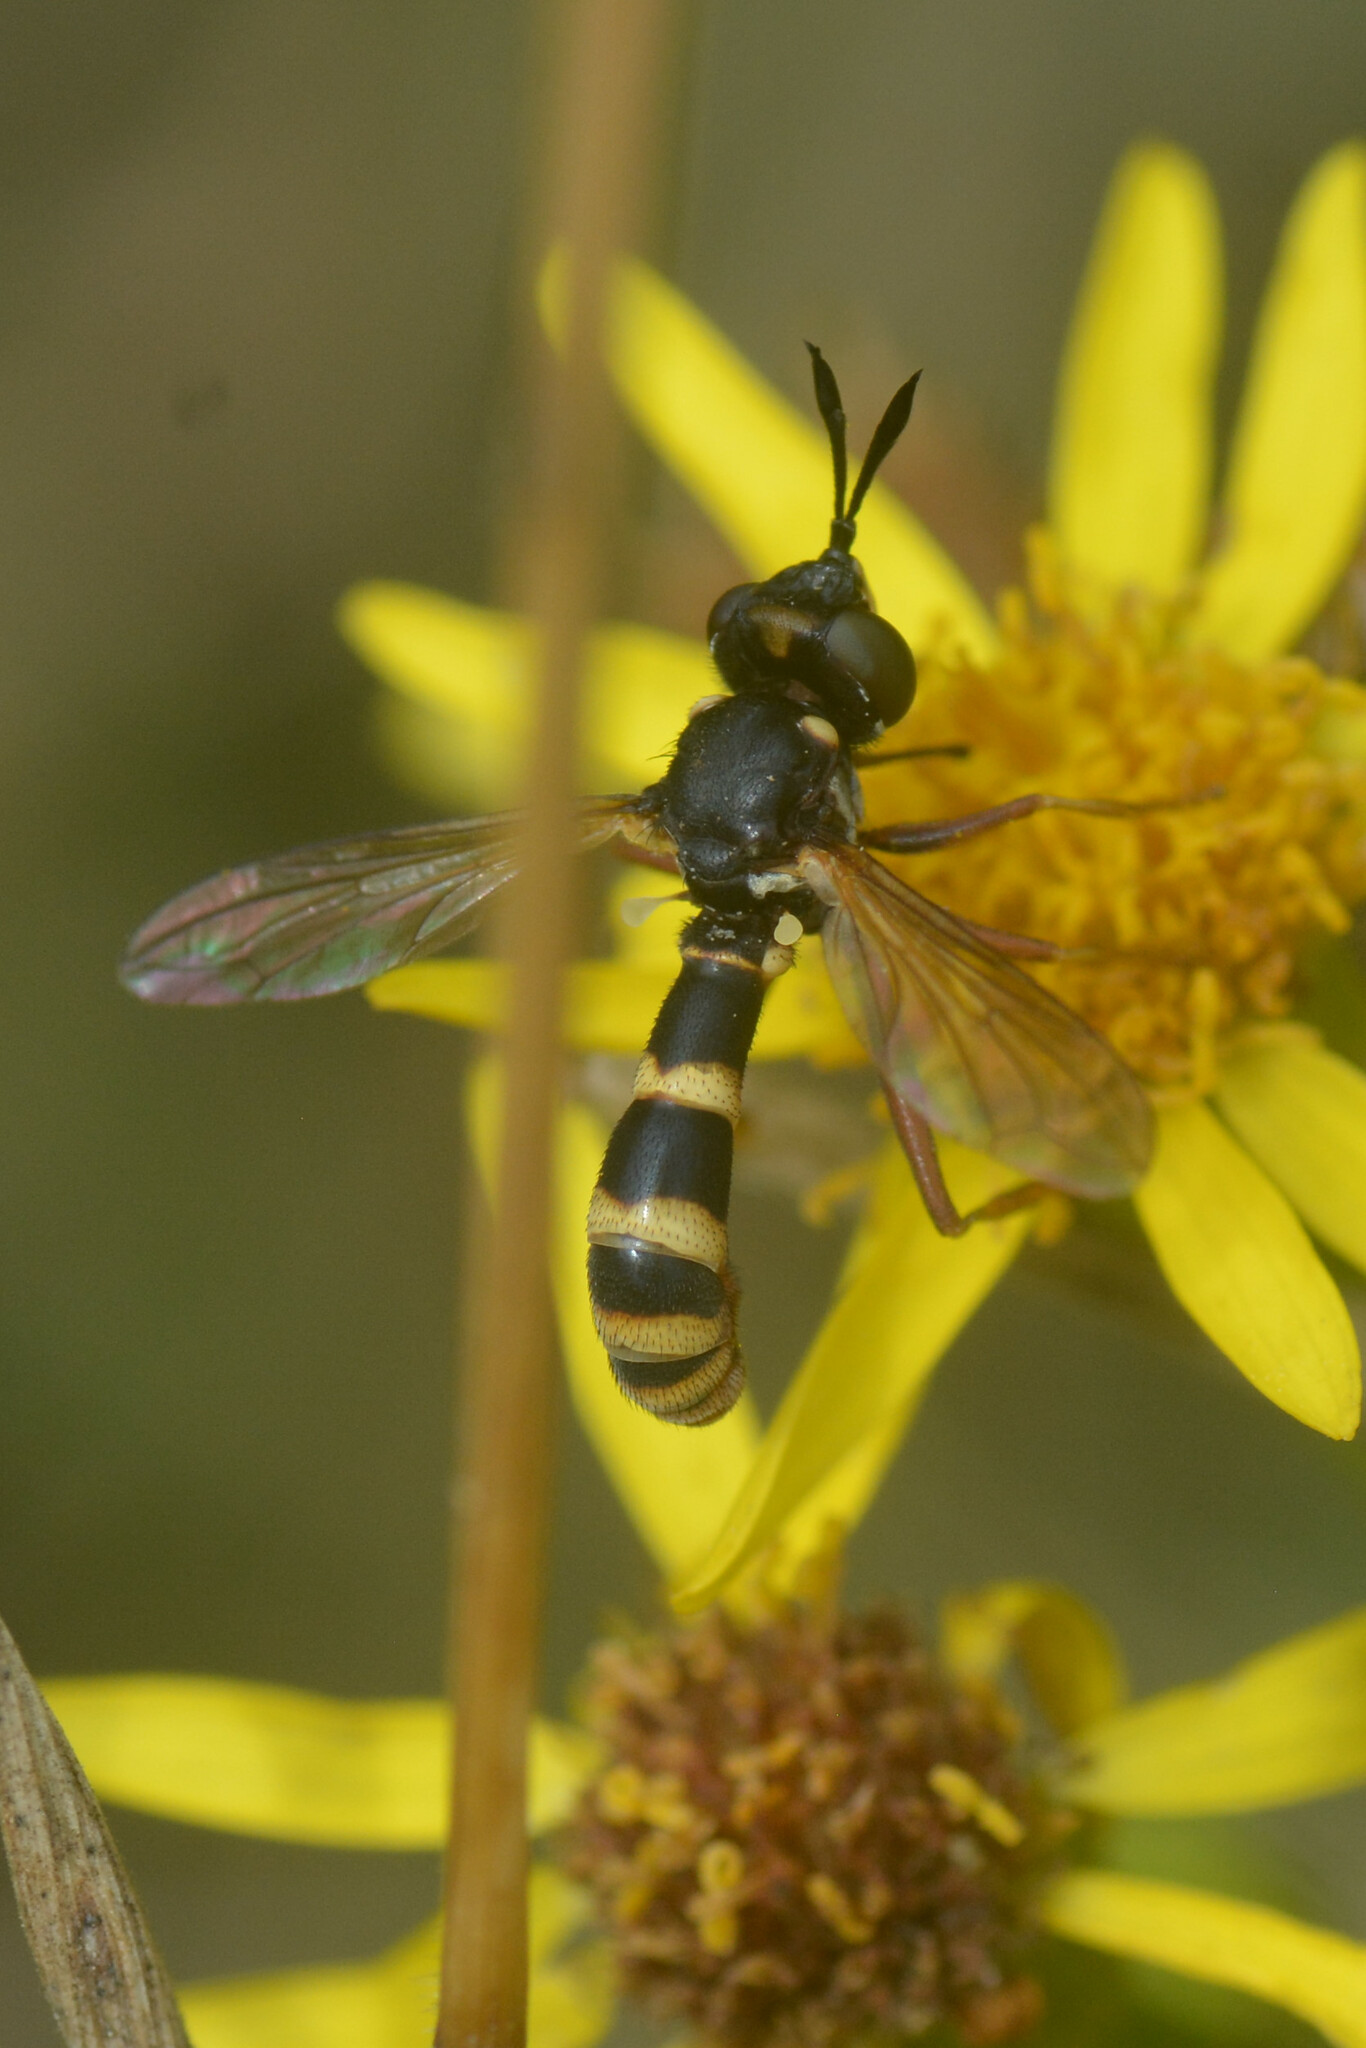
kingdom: Animalia
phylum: Arthropoda
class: Insecta
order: Diptera
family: Conopidae
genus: Conops
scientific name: Conops quadrifasciatus
